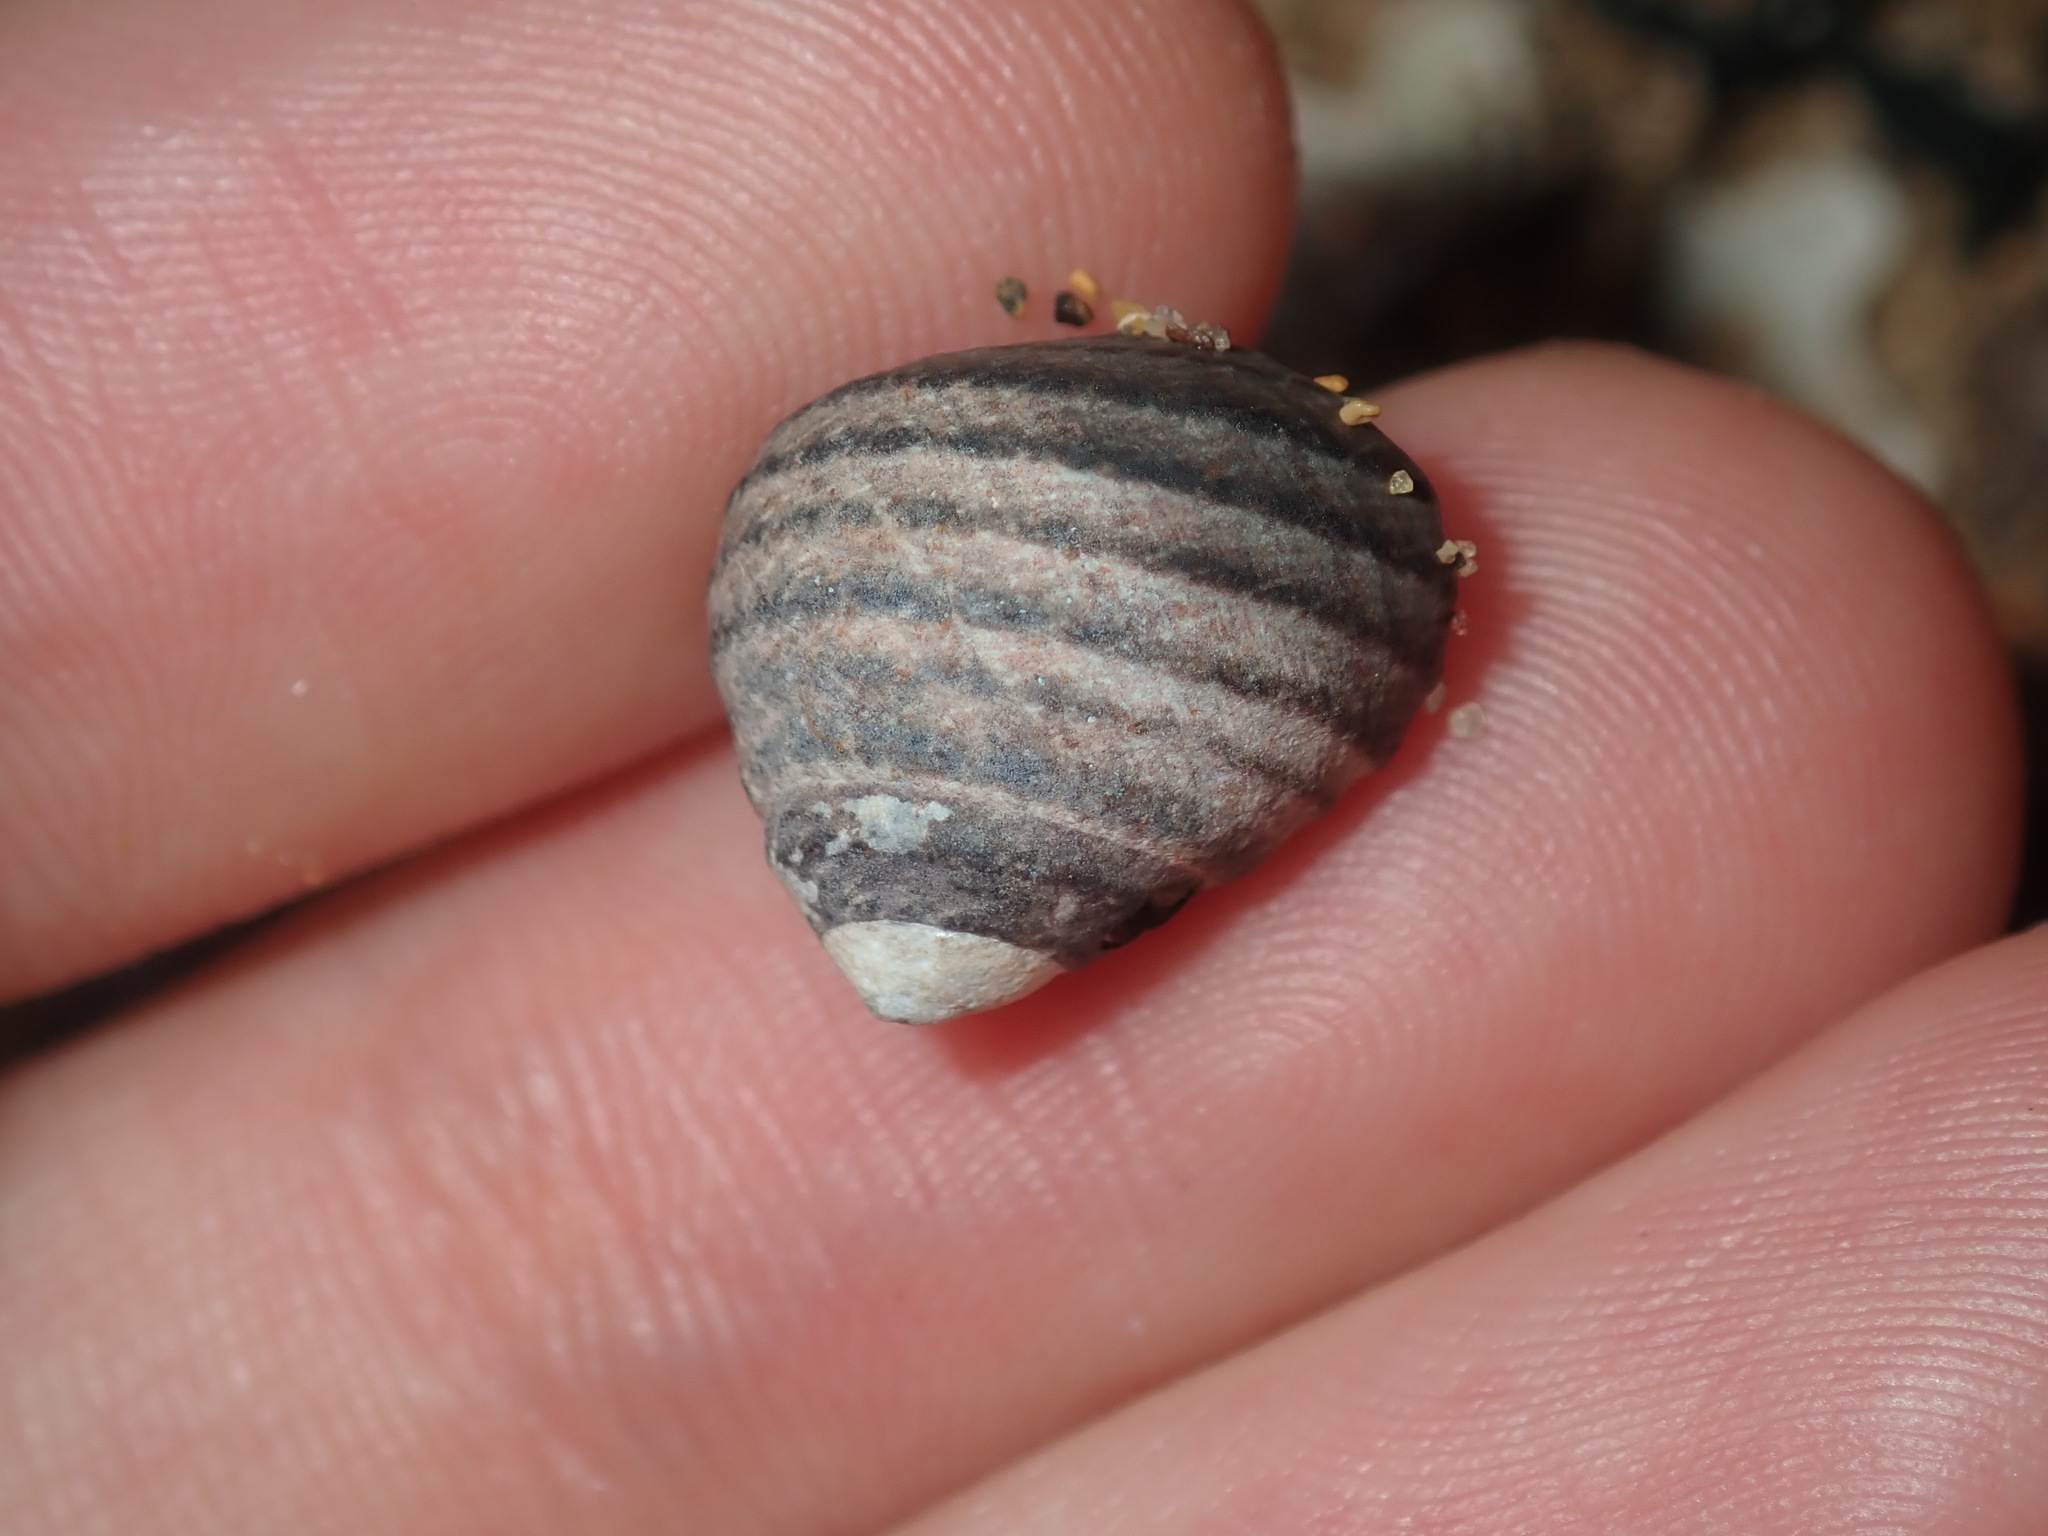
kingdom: Animalia
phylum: Mollusca
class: Gastropoda
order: Trochida
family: Trochidae
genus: Austrocochlea
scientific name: Austrocochlea constricta
